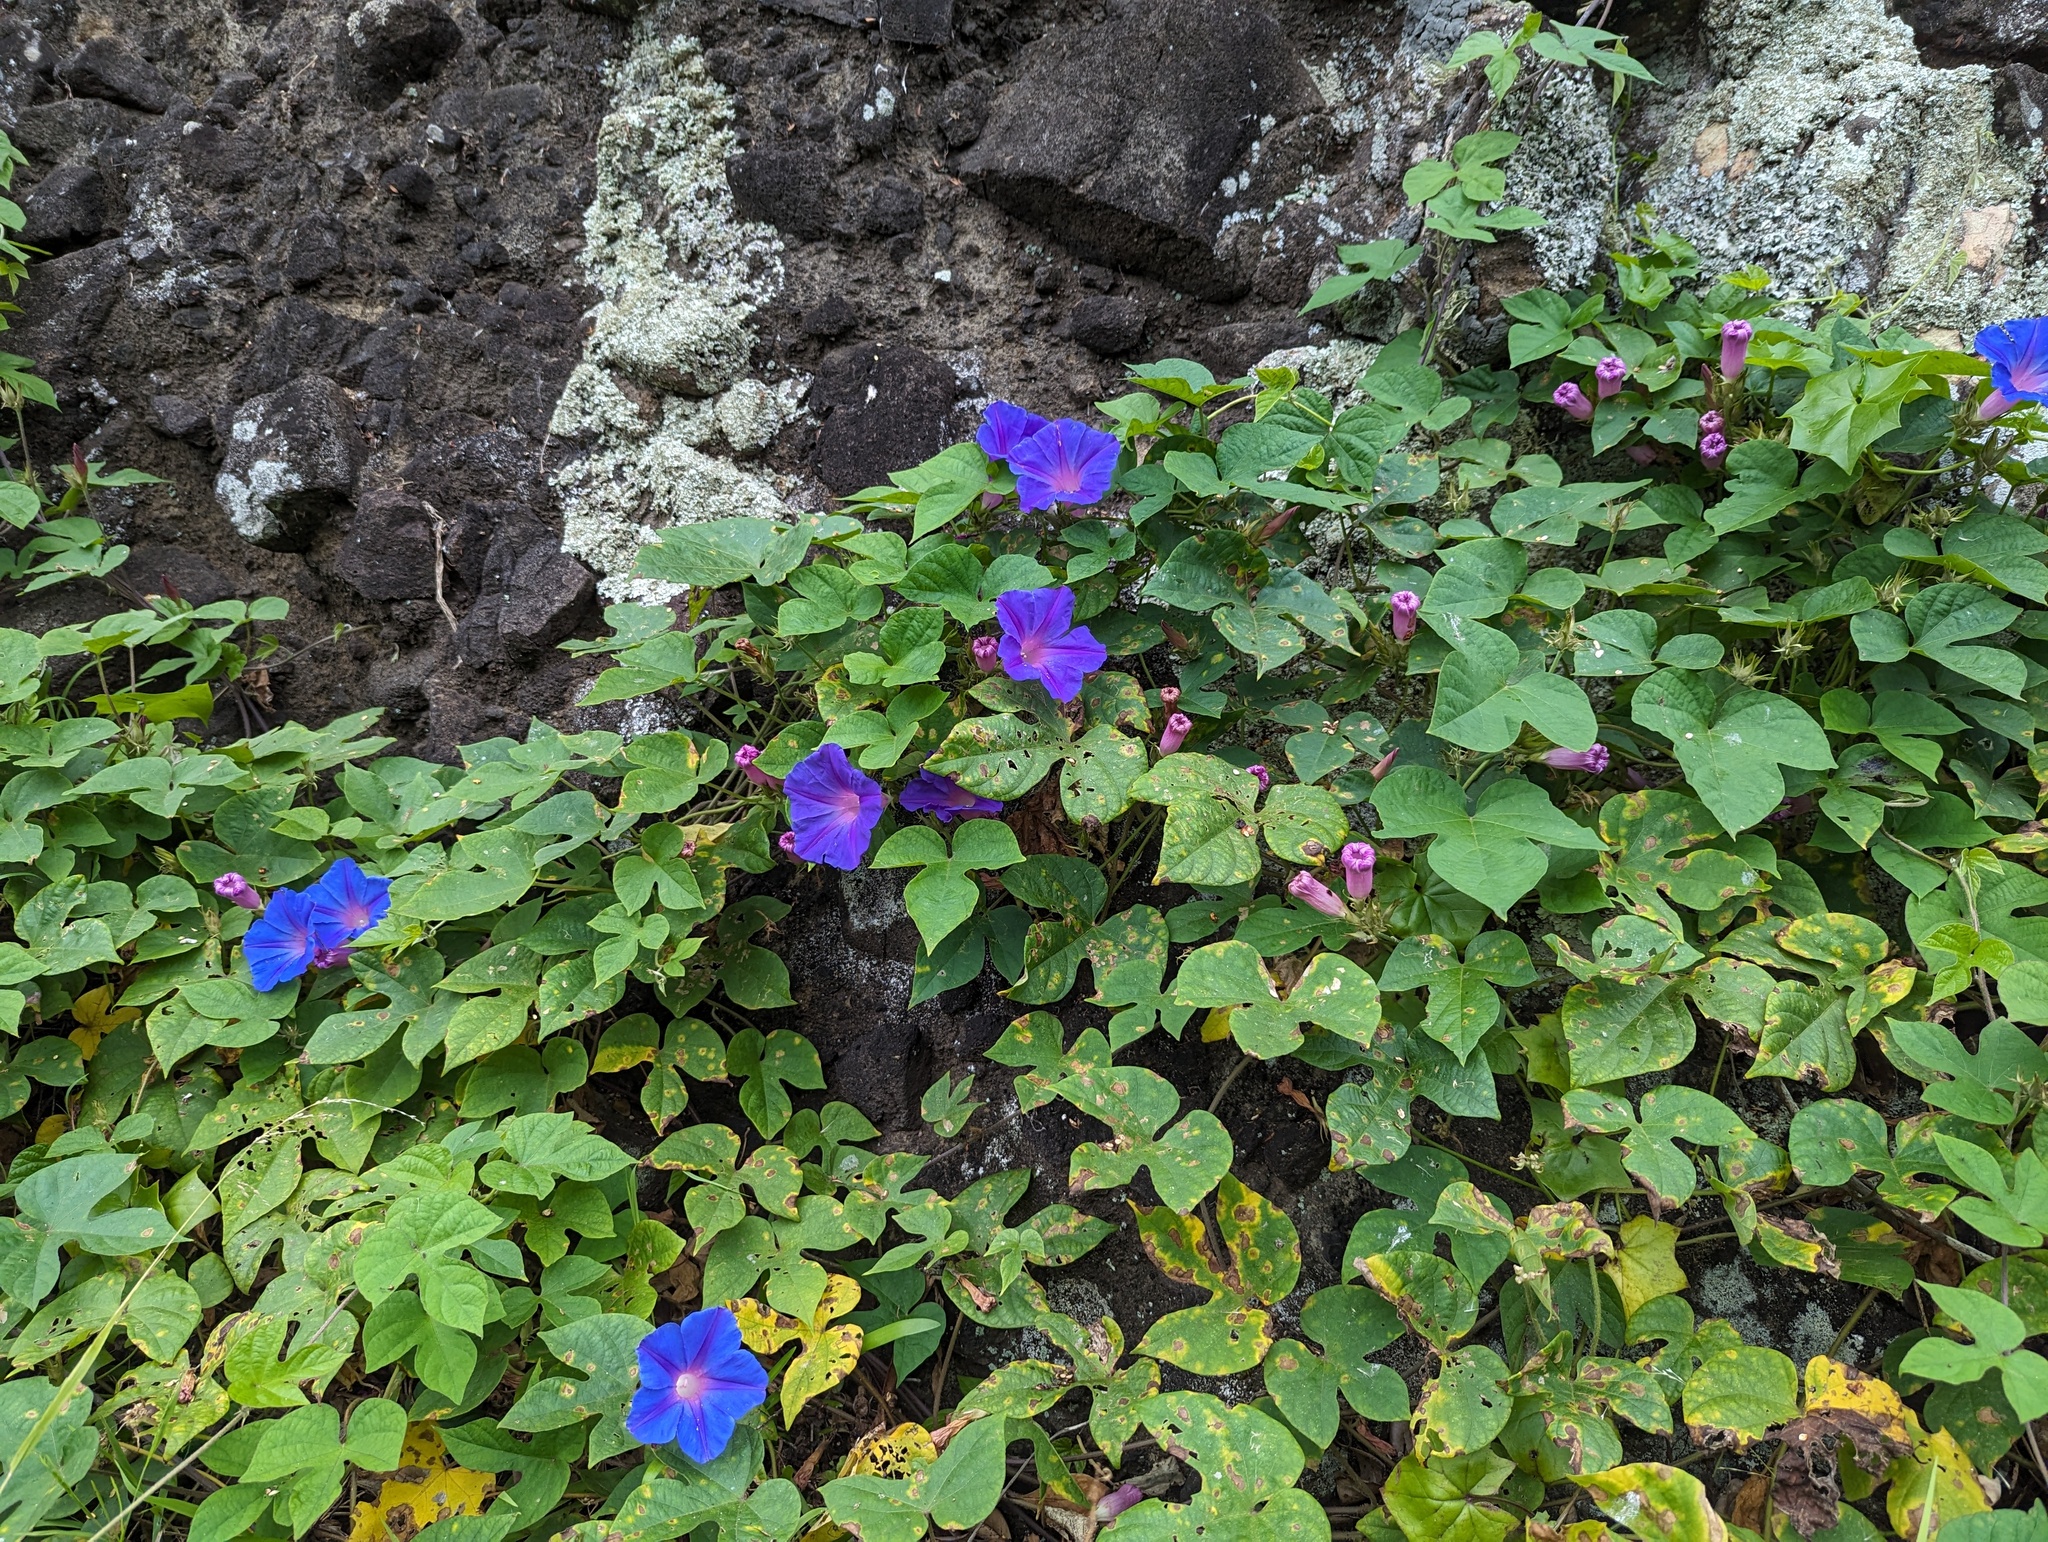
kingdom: Plantae
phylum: Tracheophyta
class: Magnoliopsida
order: Solanales
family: Convolvulaceae
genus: Ipomoea
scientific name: Ipomoea indica
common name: Blue dawnflower
